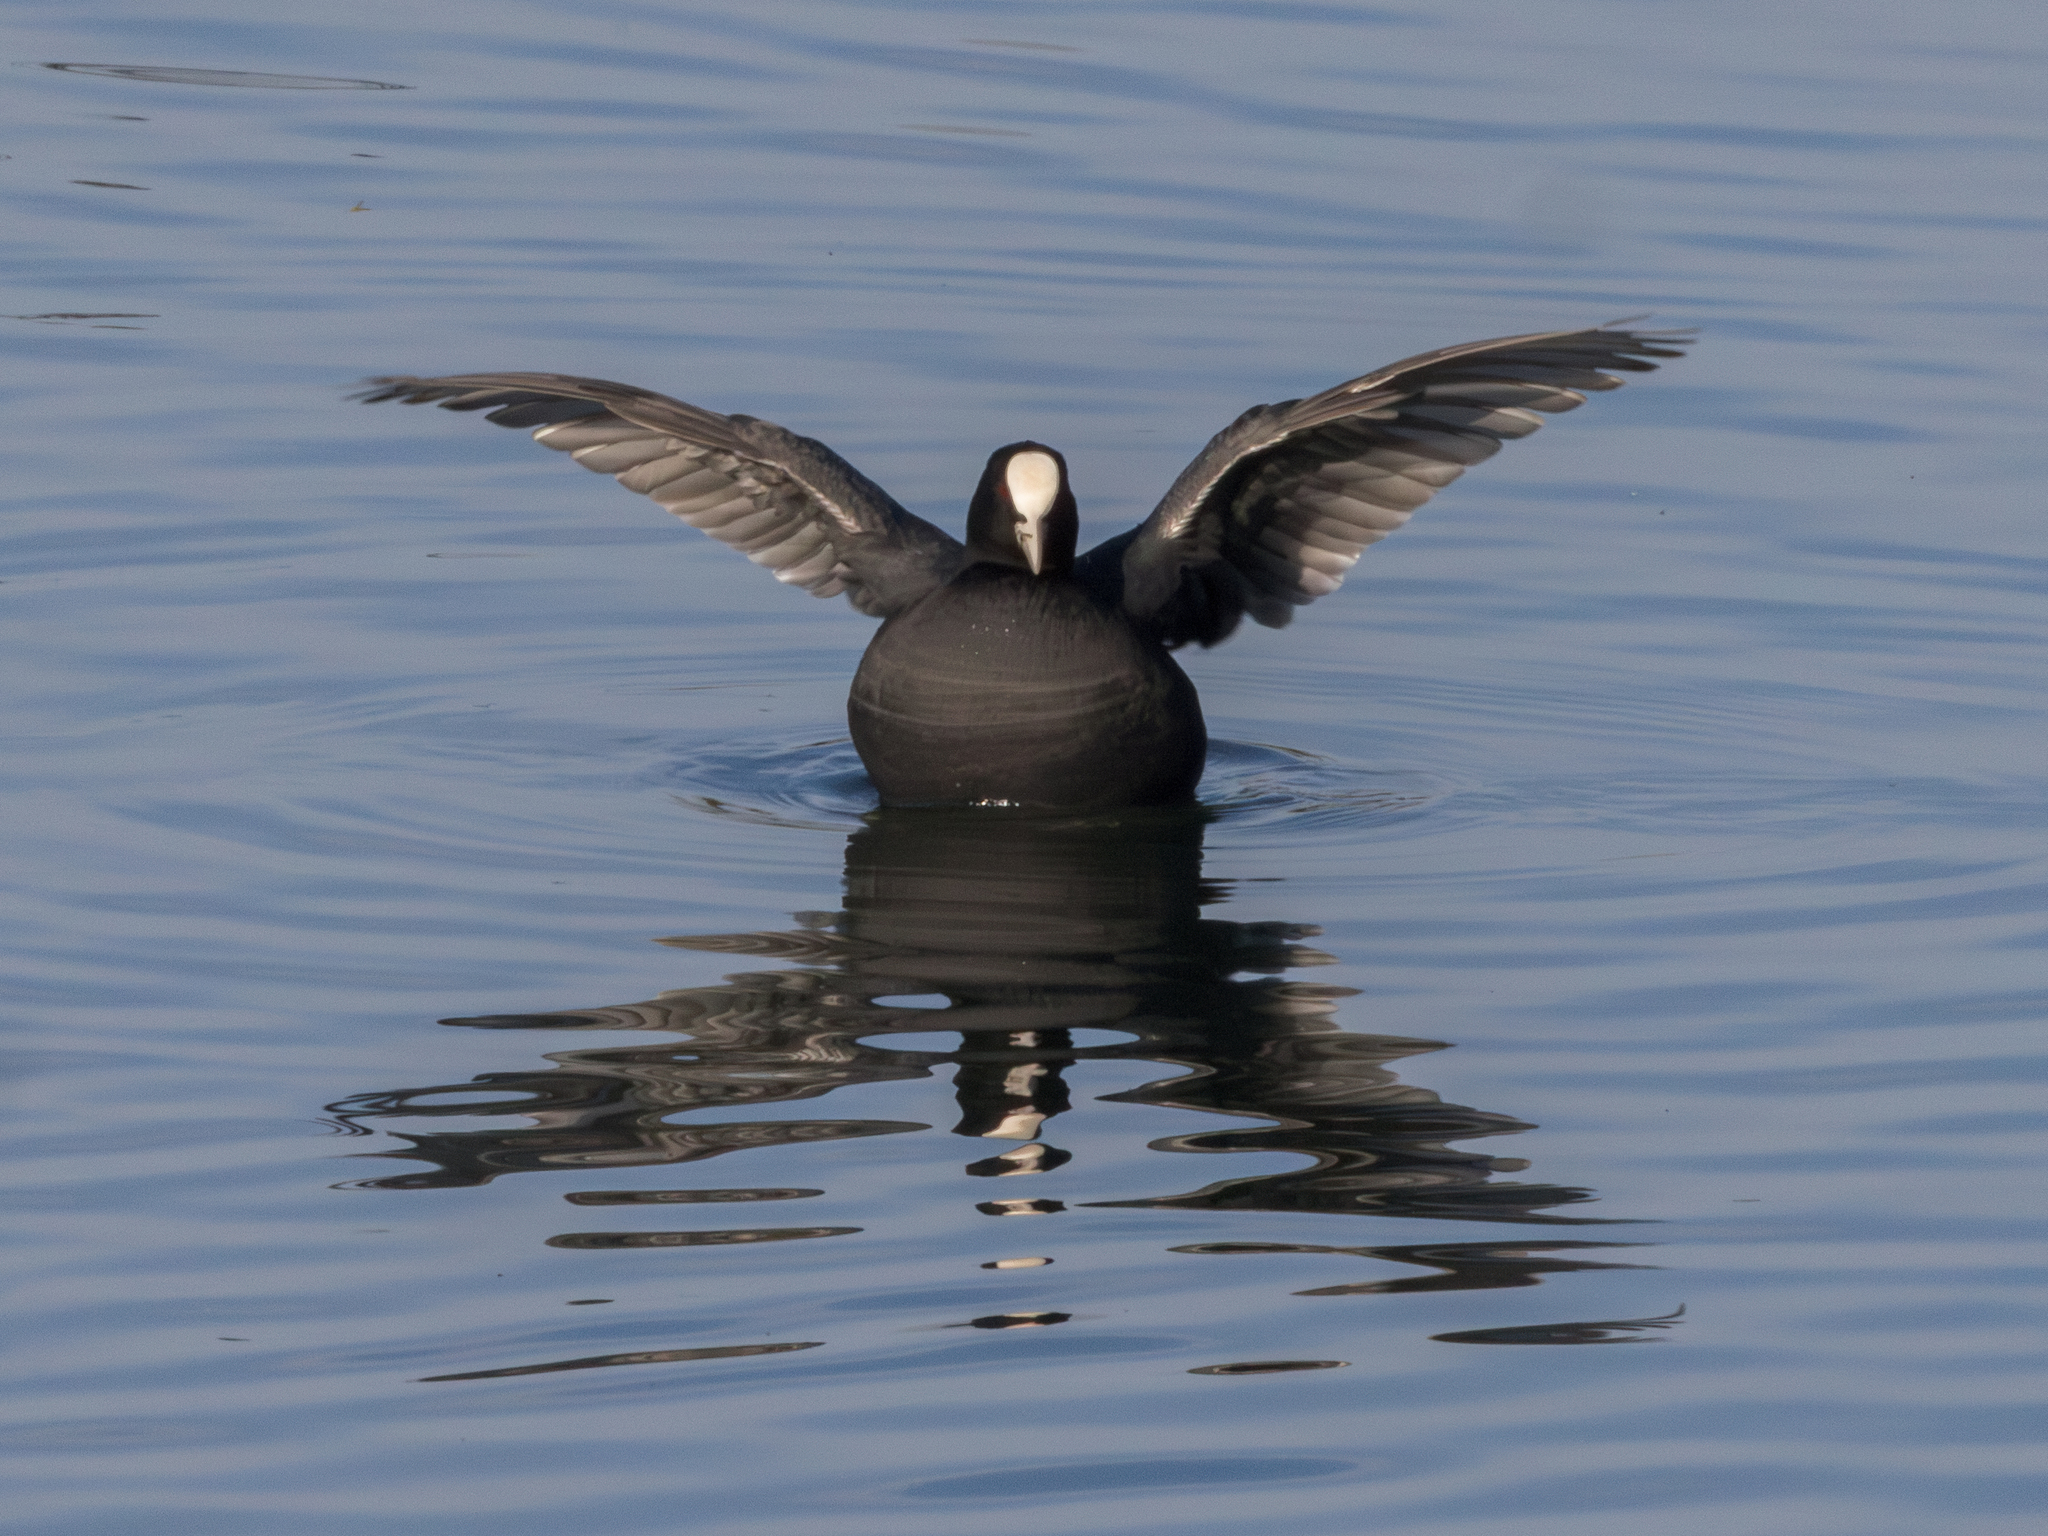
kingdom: Animalia
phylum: Chordata
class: Aves
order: Gruiformes
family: Rallidae
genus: Fulica
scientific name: Fulica atra
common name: Eurasian coot
